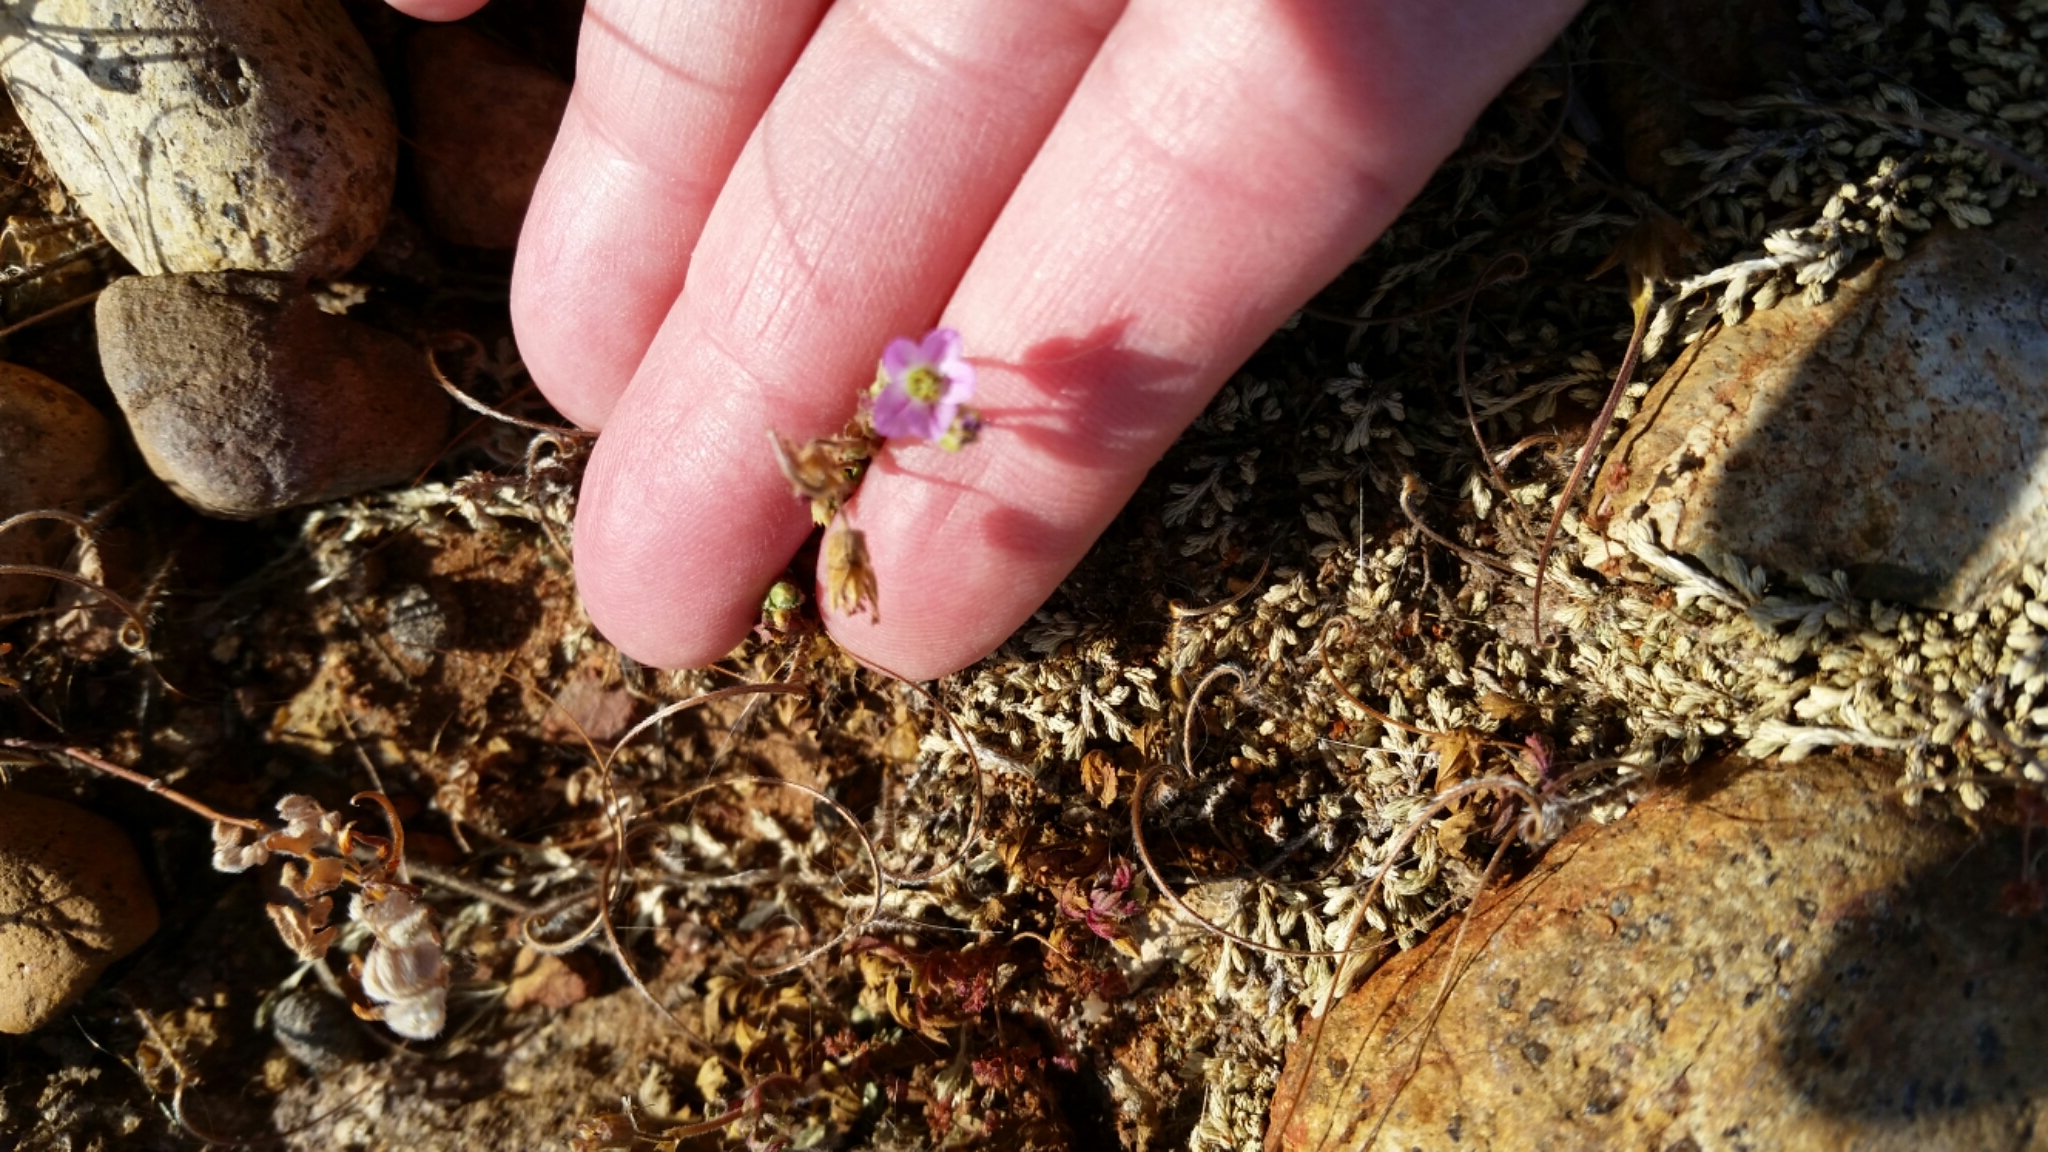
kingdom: Plantae
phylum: Tracheophyta
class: Magnoliopsida
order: Geraniales
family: Geraniaceae
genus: Erodium
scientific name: Erodium brachycarpum
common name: Hairy-pitted stork's-bill
